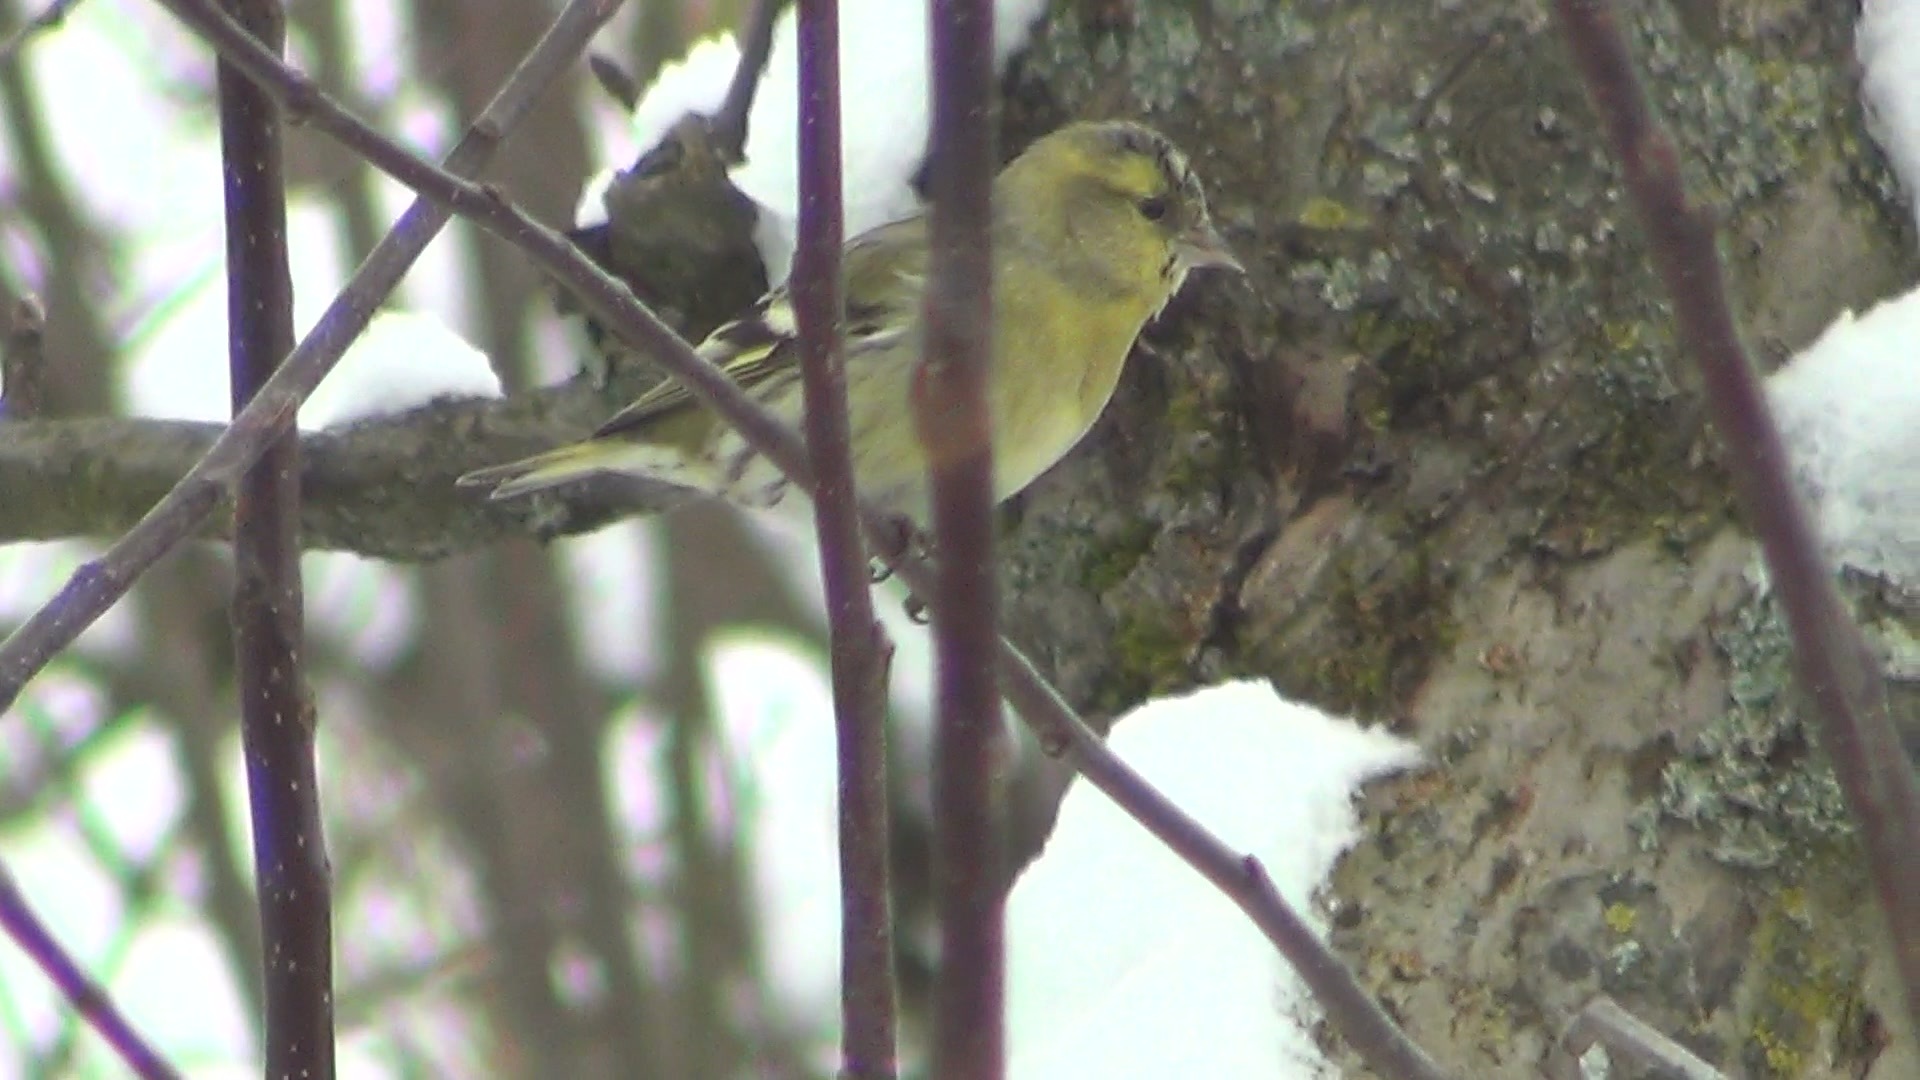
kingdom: Animalia
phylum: Chordata
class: Aves
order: Passeriformes
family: Fringillidae
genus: Spinus
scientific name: Spinus spinus
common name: Eurasian siskin
